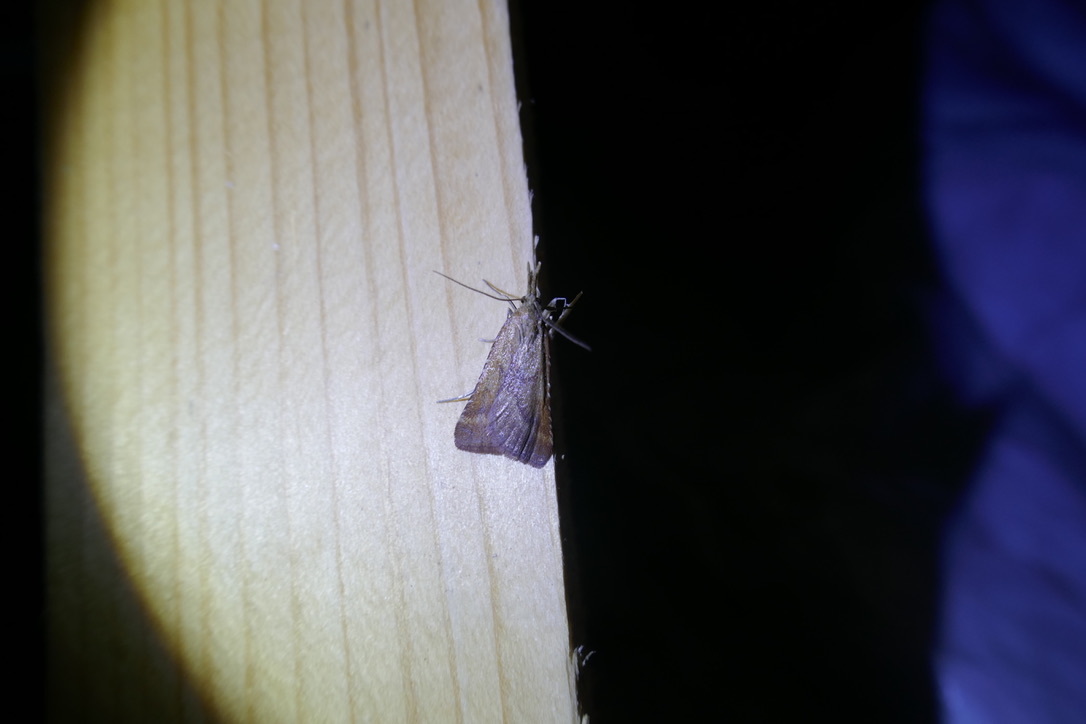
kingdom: Animalia
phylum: Arthropoda
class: Insecta
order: Lepidoptera
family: Pyralidae
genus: Synaphe
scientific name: Synaphe punctalis
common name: Long-legged tabby
